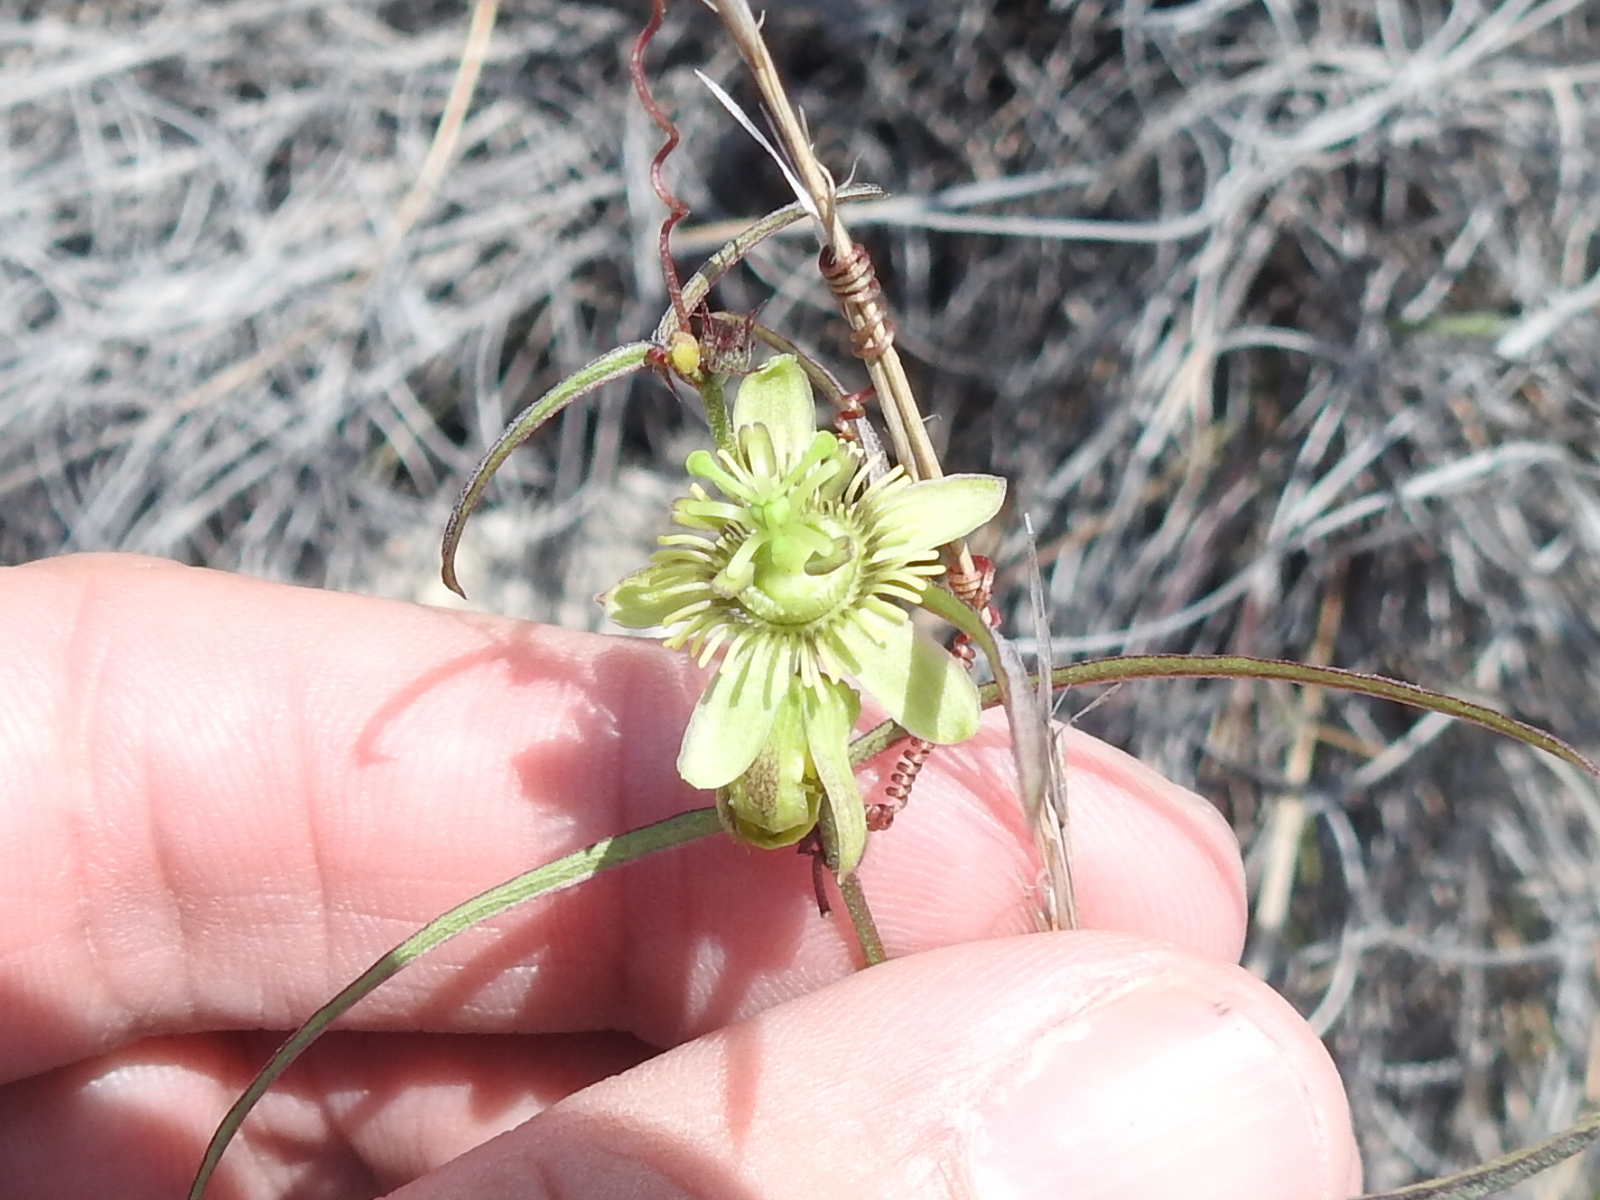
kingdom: Plantae
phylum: Tracheophyta
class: Magnoliopsida
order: Malpighiales
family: Passifloraceae
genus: Passiflora
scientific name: Passiflora tenuiloba
